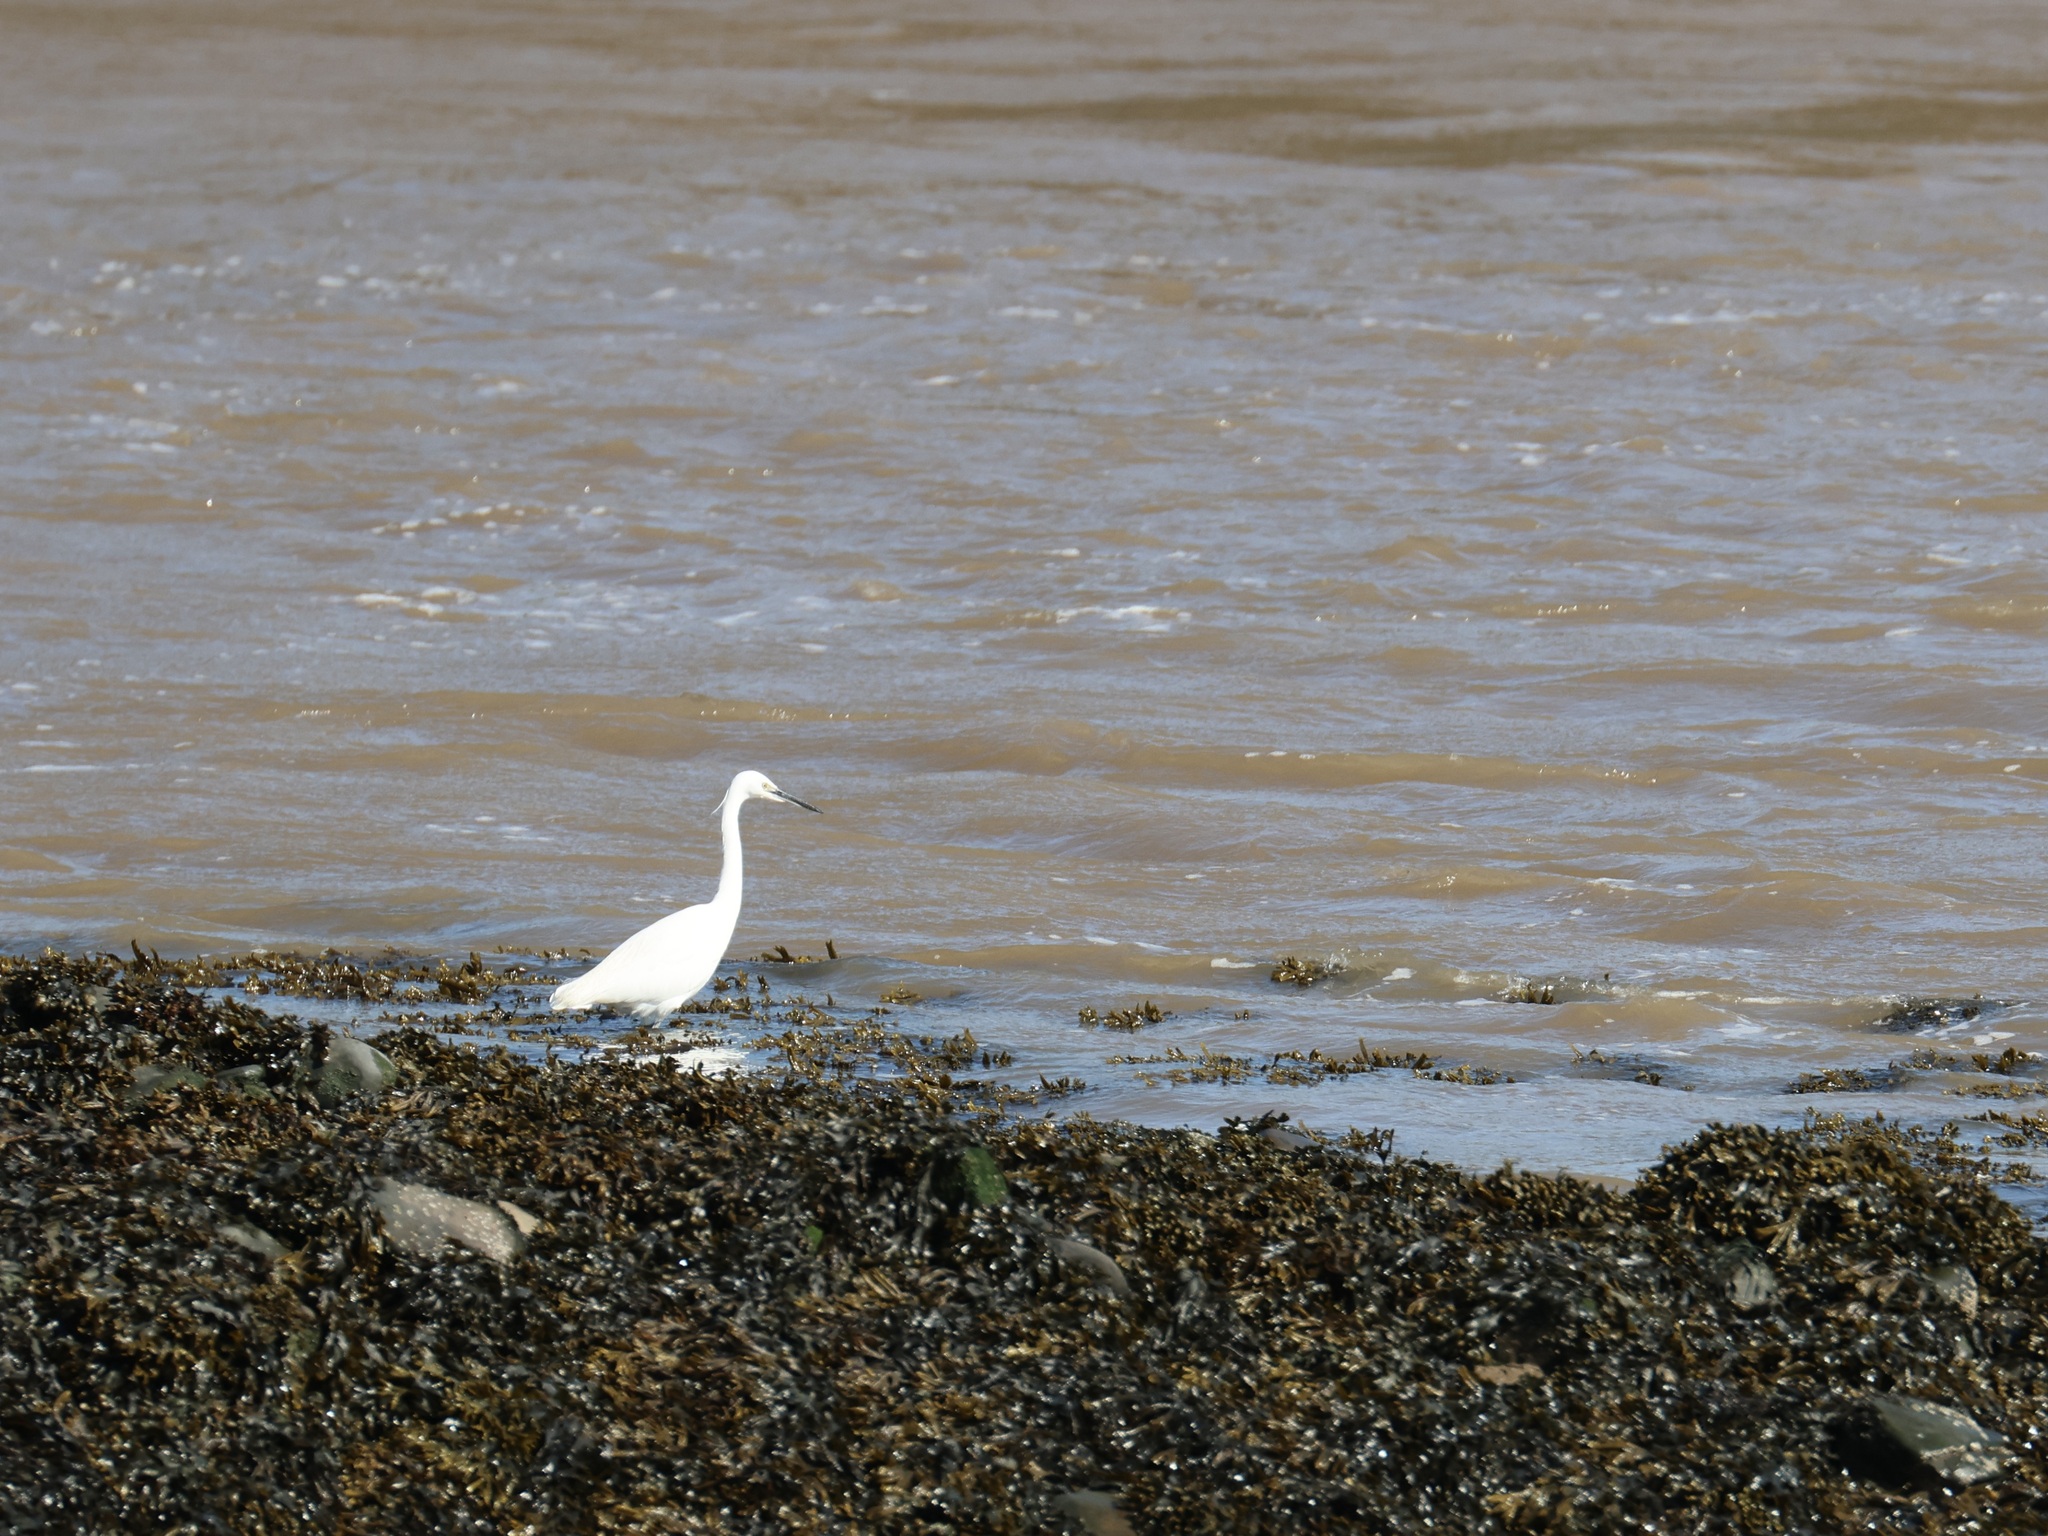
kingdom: Animalia
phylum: Chordata
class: Aves
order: Pelecaniformes
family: Ardeidae
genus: Egretta
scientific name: Egretta garzetta
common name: Little egret
